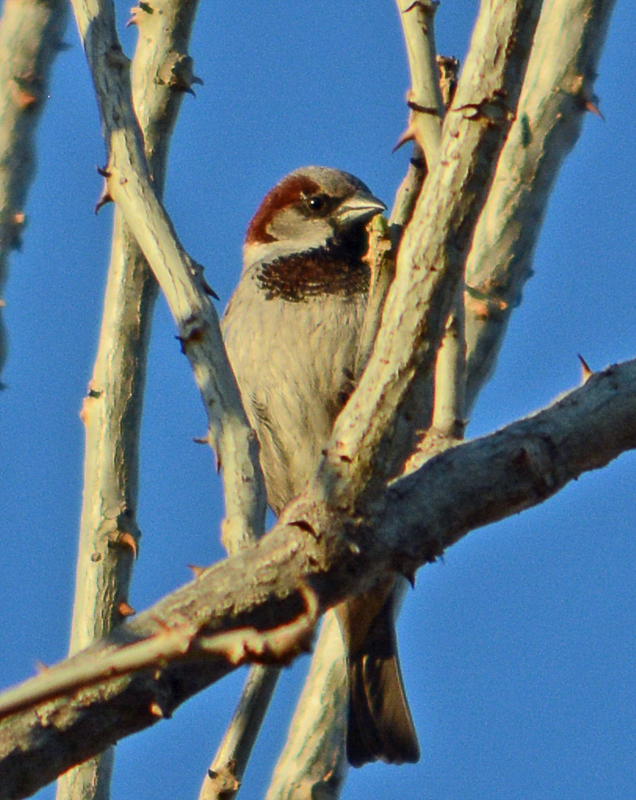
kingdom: Animalia
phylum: Chordata
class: Aves
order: Passeriformes
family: Passeridae
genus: Passer
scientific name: Passer domesticus
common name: House sparrow
